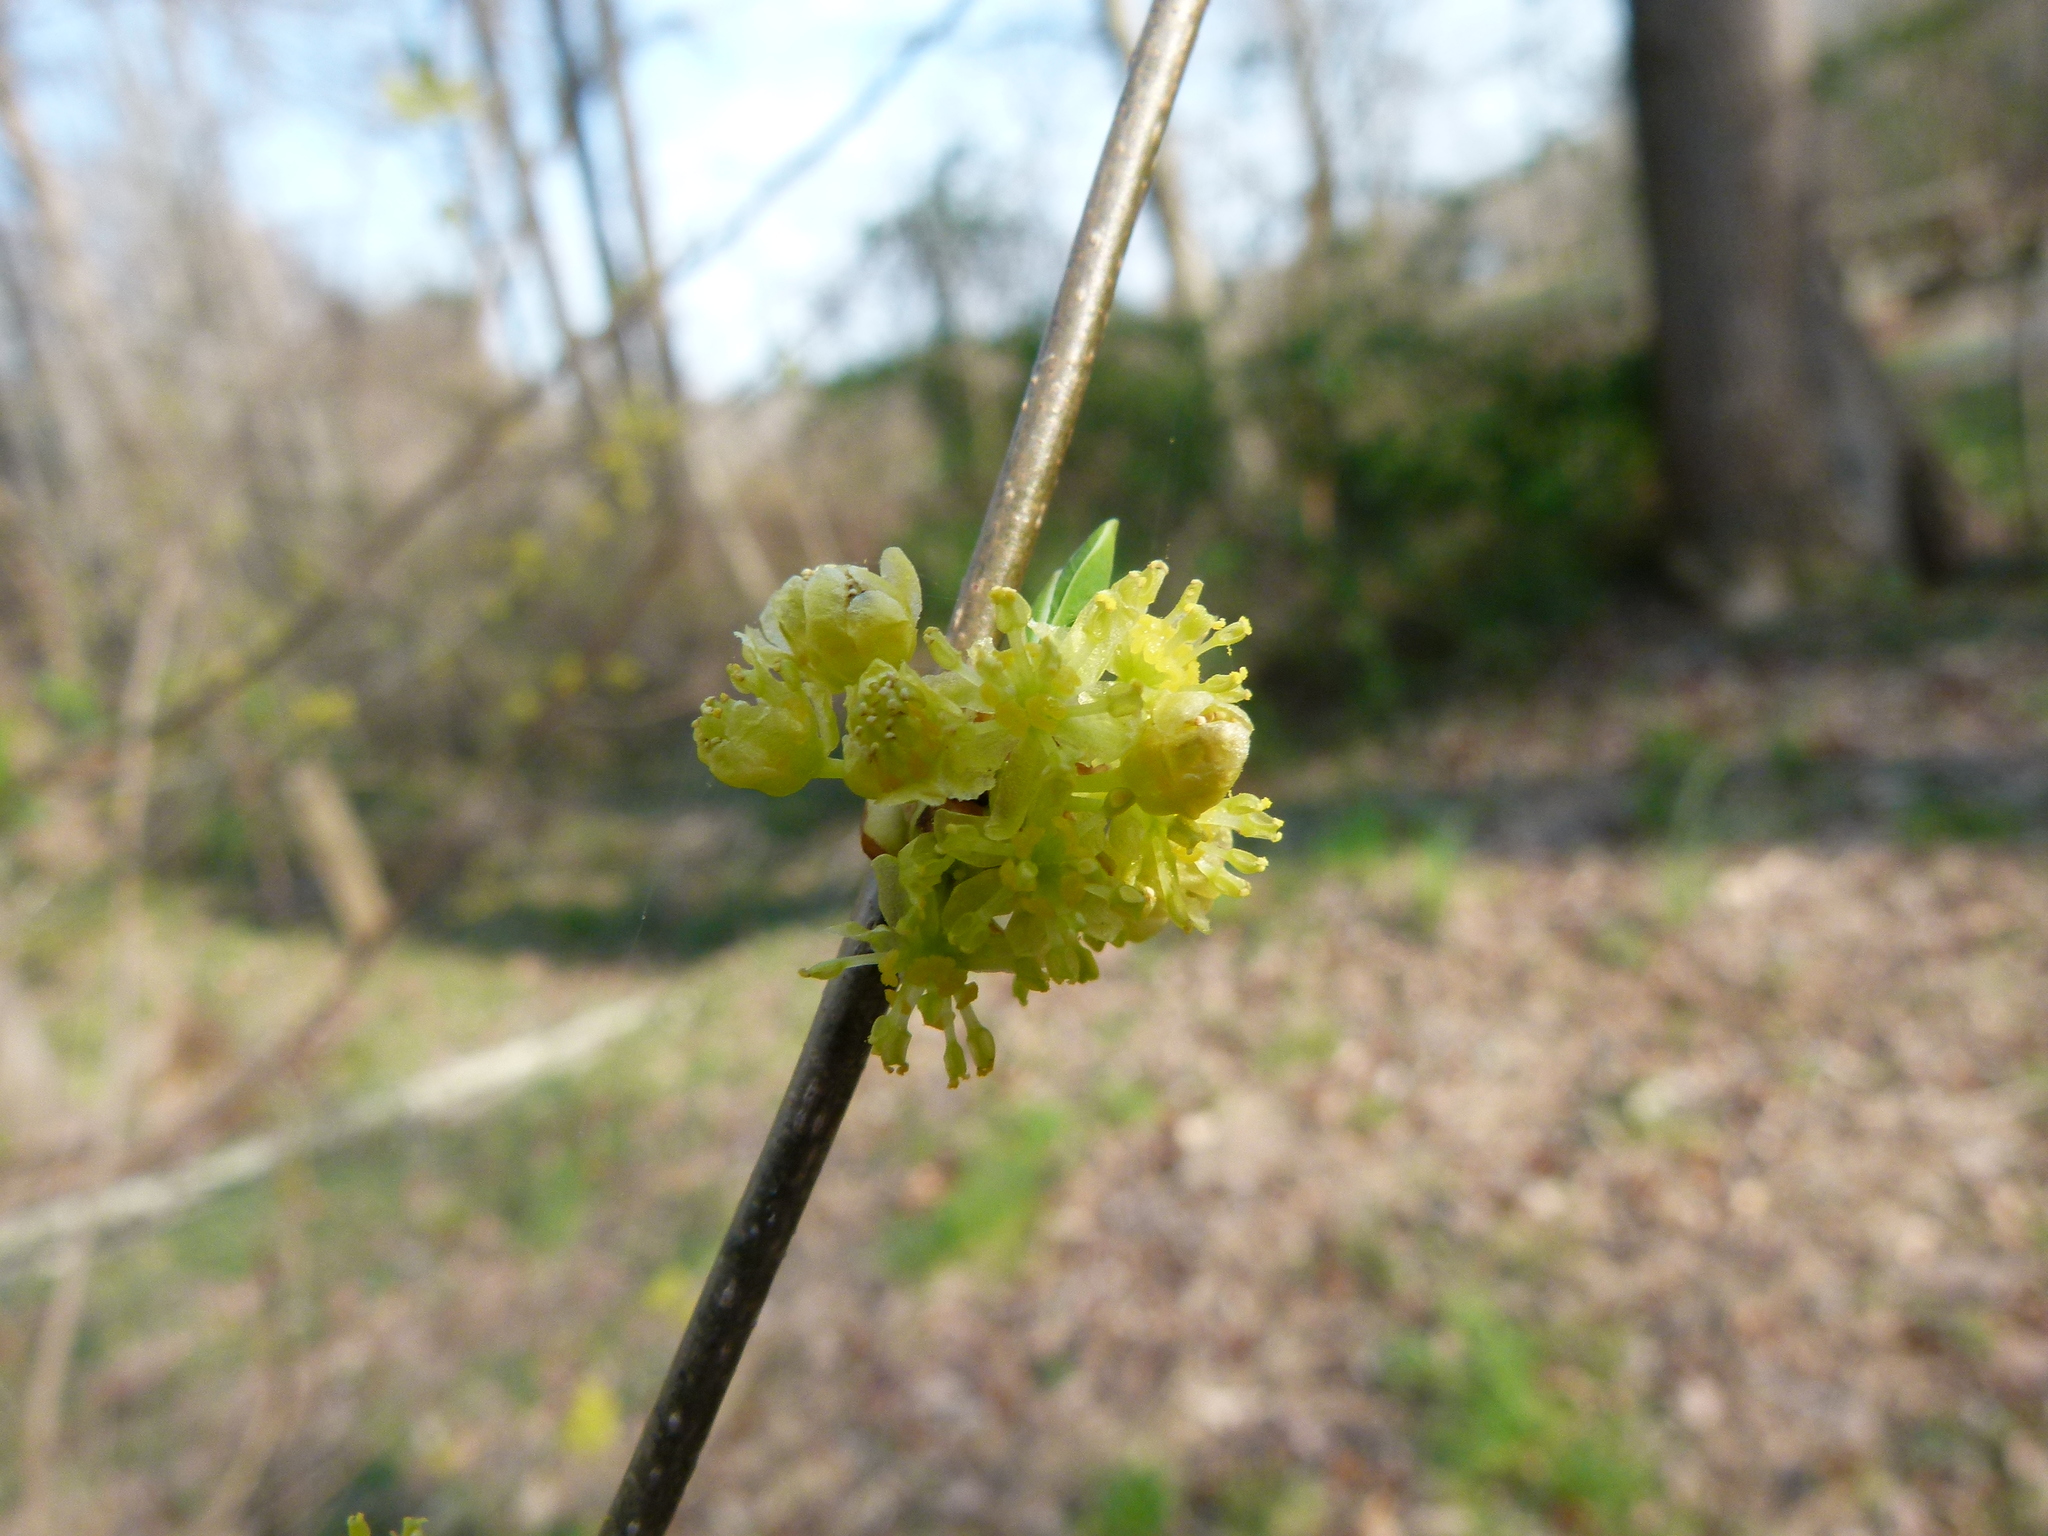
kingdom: Plantae
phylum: Tracheophyta
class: Magnoliopsida
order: Laurales
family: Lauraceae
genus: Lindera
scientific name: Lindera benzoin
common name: Spicebush
